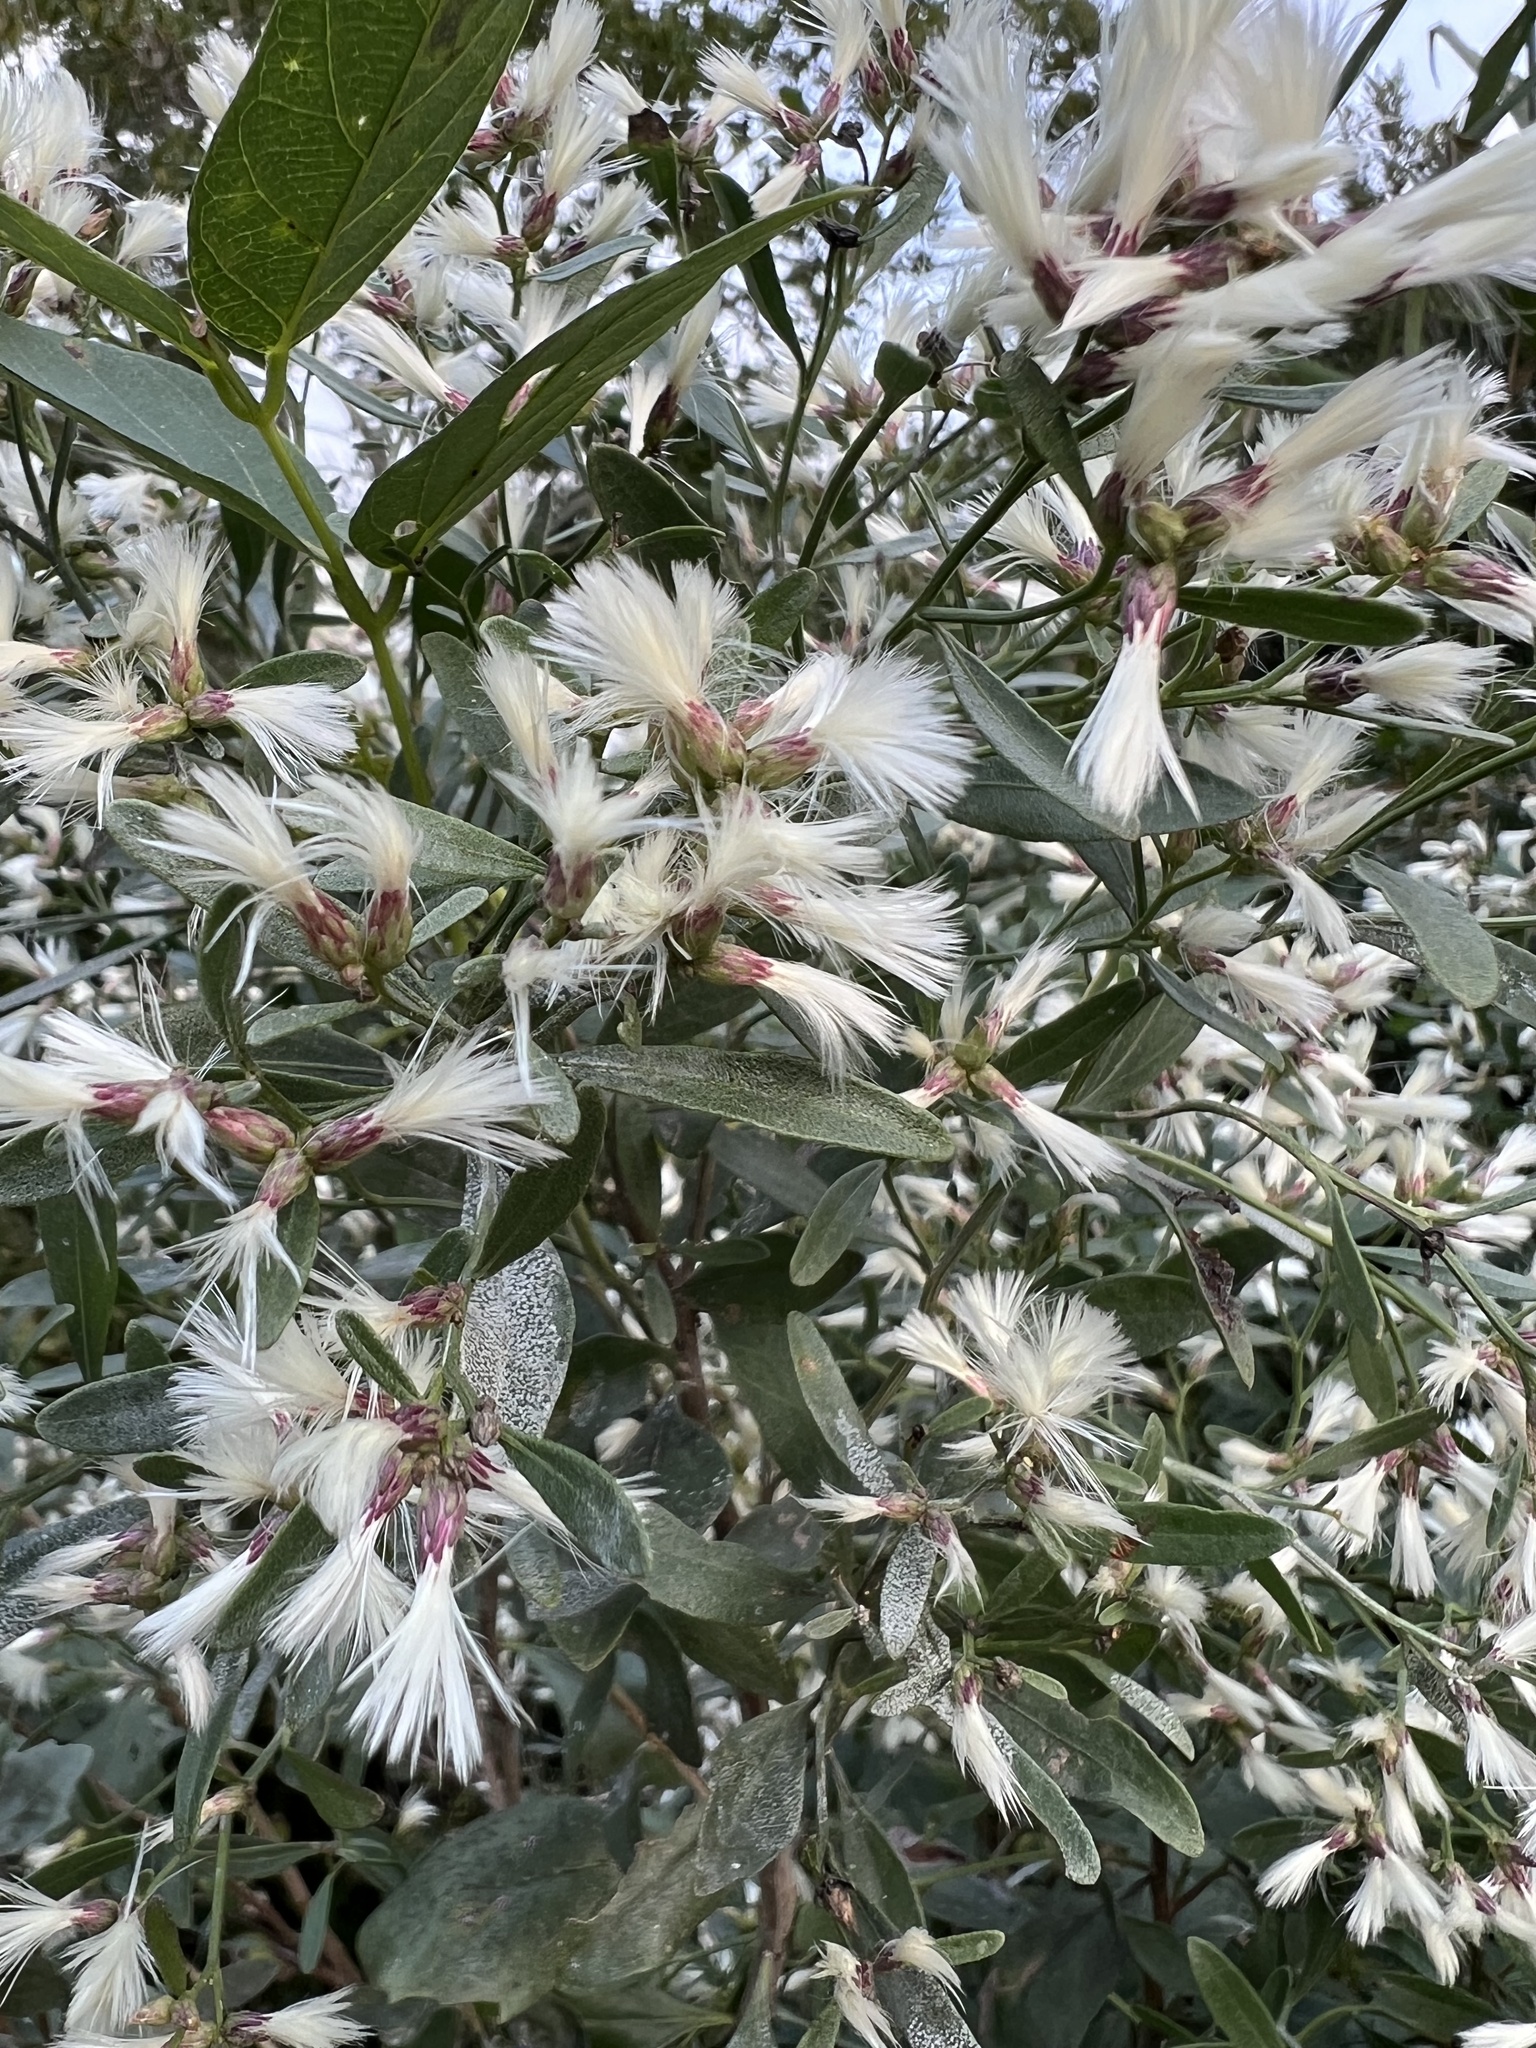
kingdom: Plantae
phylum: Tracheophyta
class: Magnoliopsida
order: Asterales
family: Asteraceae
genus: Baccharis
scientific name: Baccharis halimifolia
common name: Eastern baccharis
